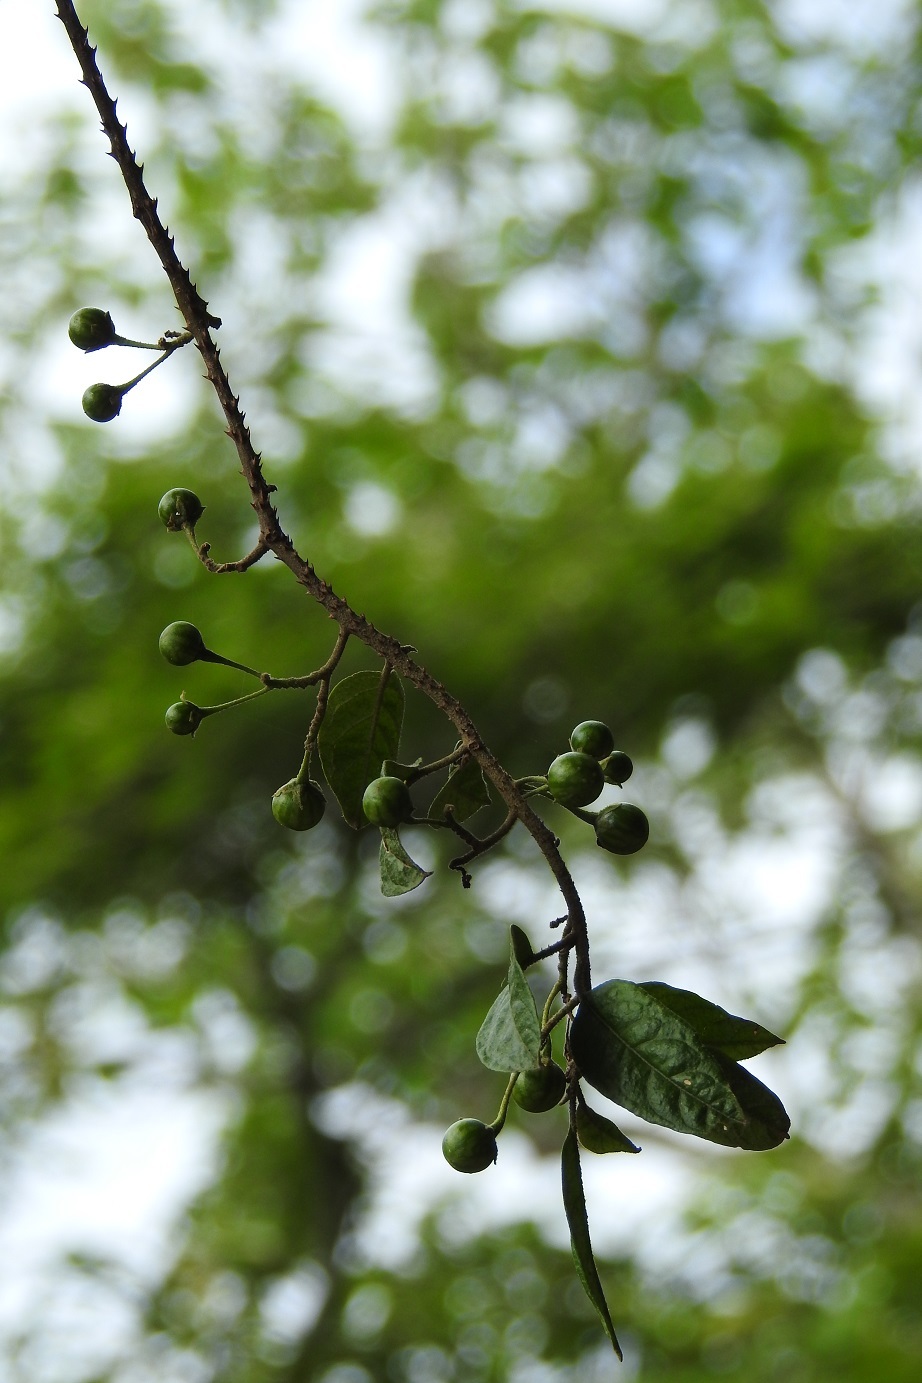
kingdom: Plantae
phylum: Tracheophyta
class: Magnoliopsida
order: Solanales
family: Solanaceae
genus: Solanum
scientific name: Solanum aturense
